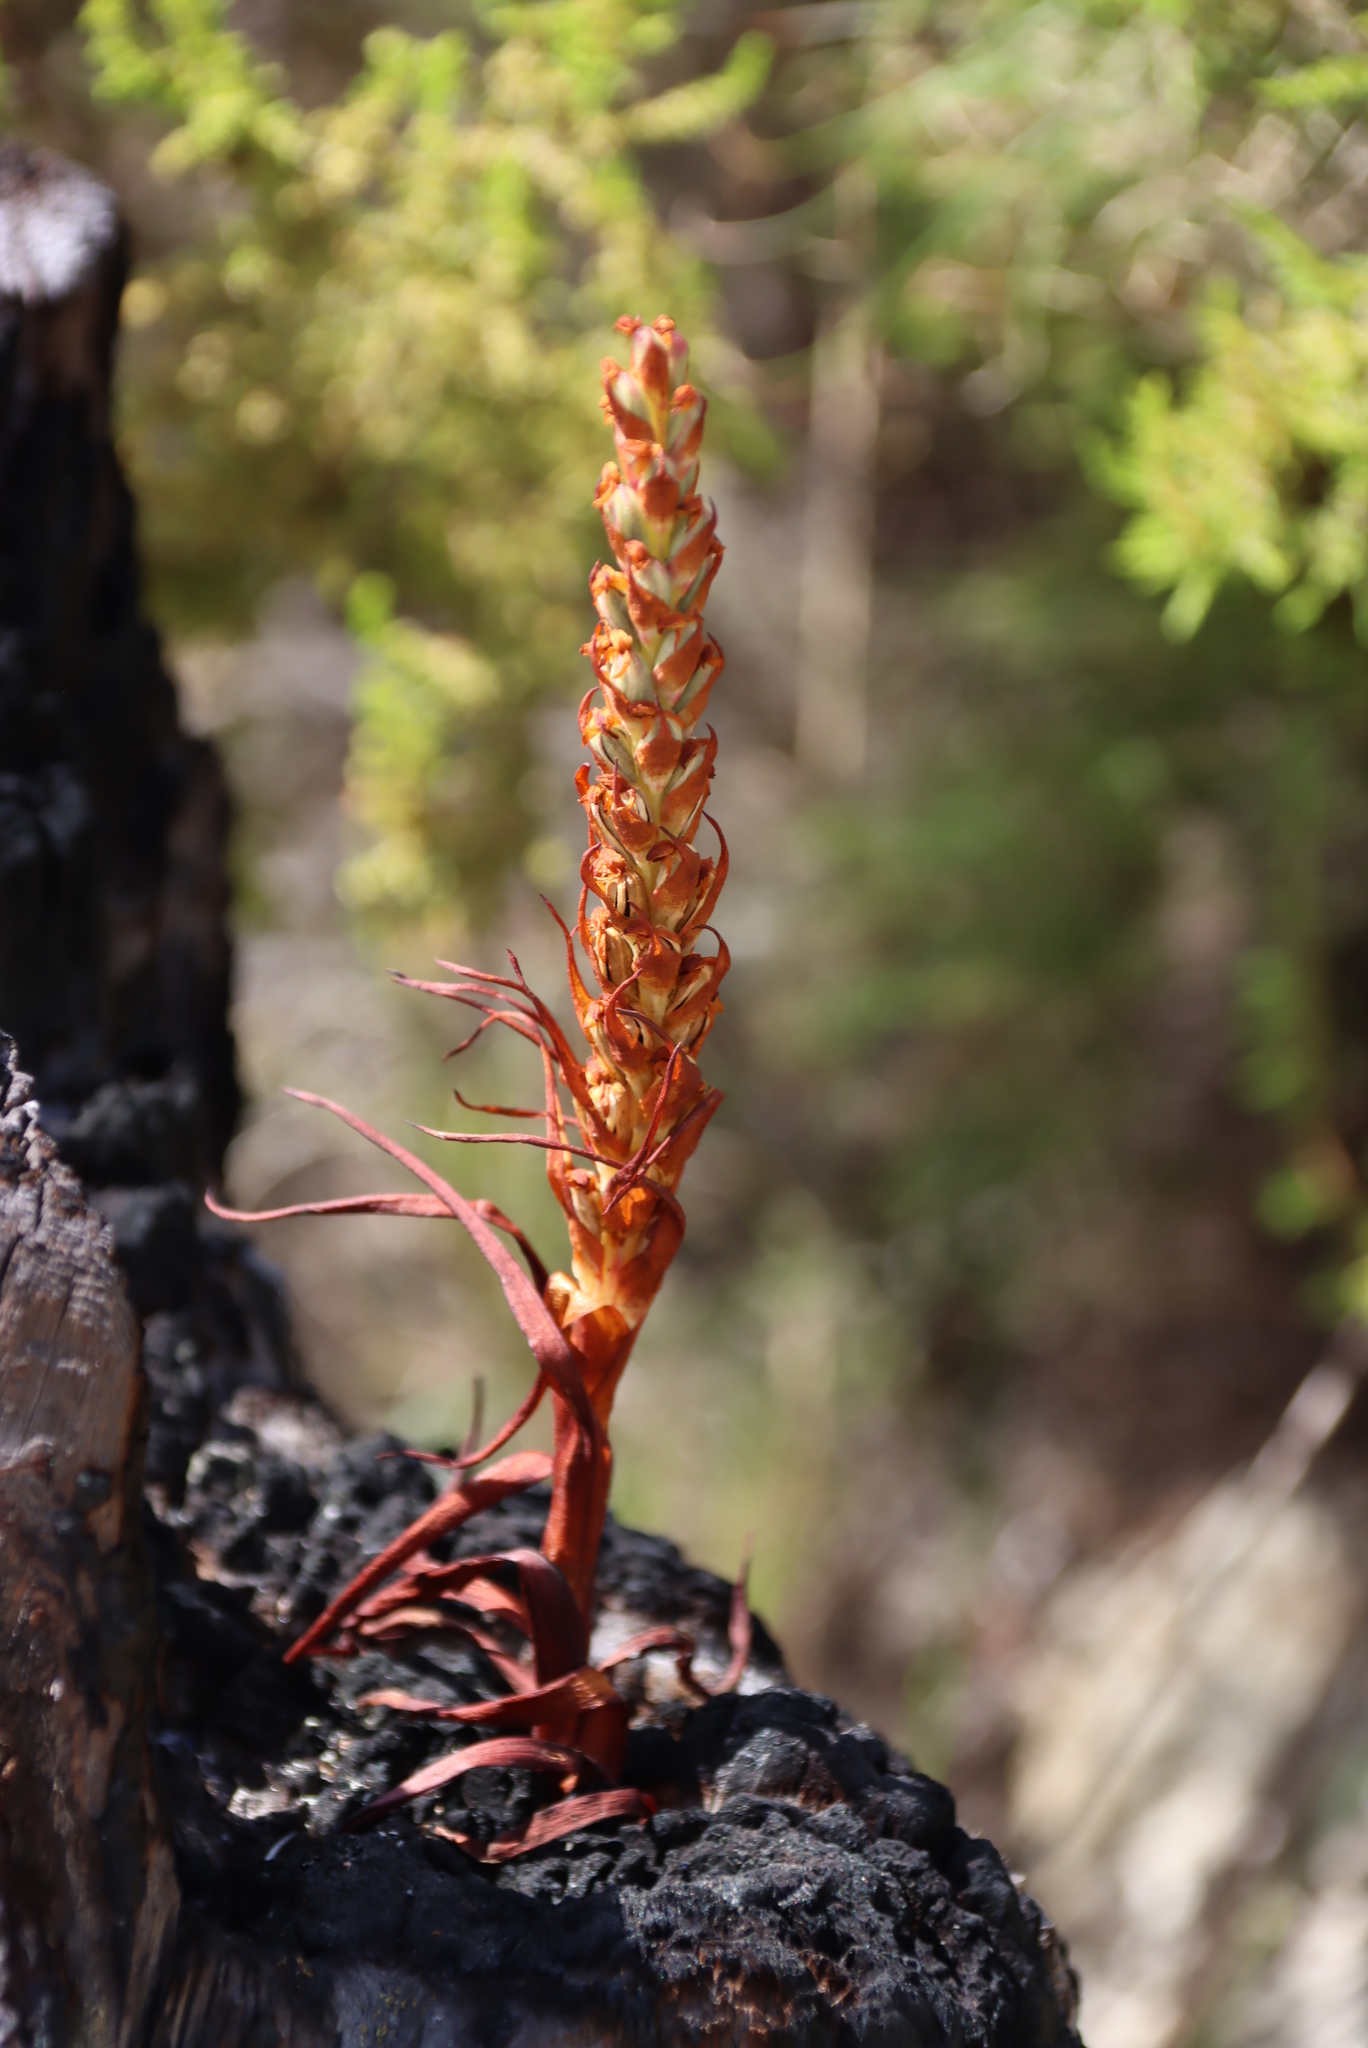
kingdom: Plantae
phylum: Tracheophyta
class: Liliopsida
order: Asparagales
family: Orchidaceae
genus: Disa
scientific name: Disa bracteata
